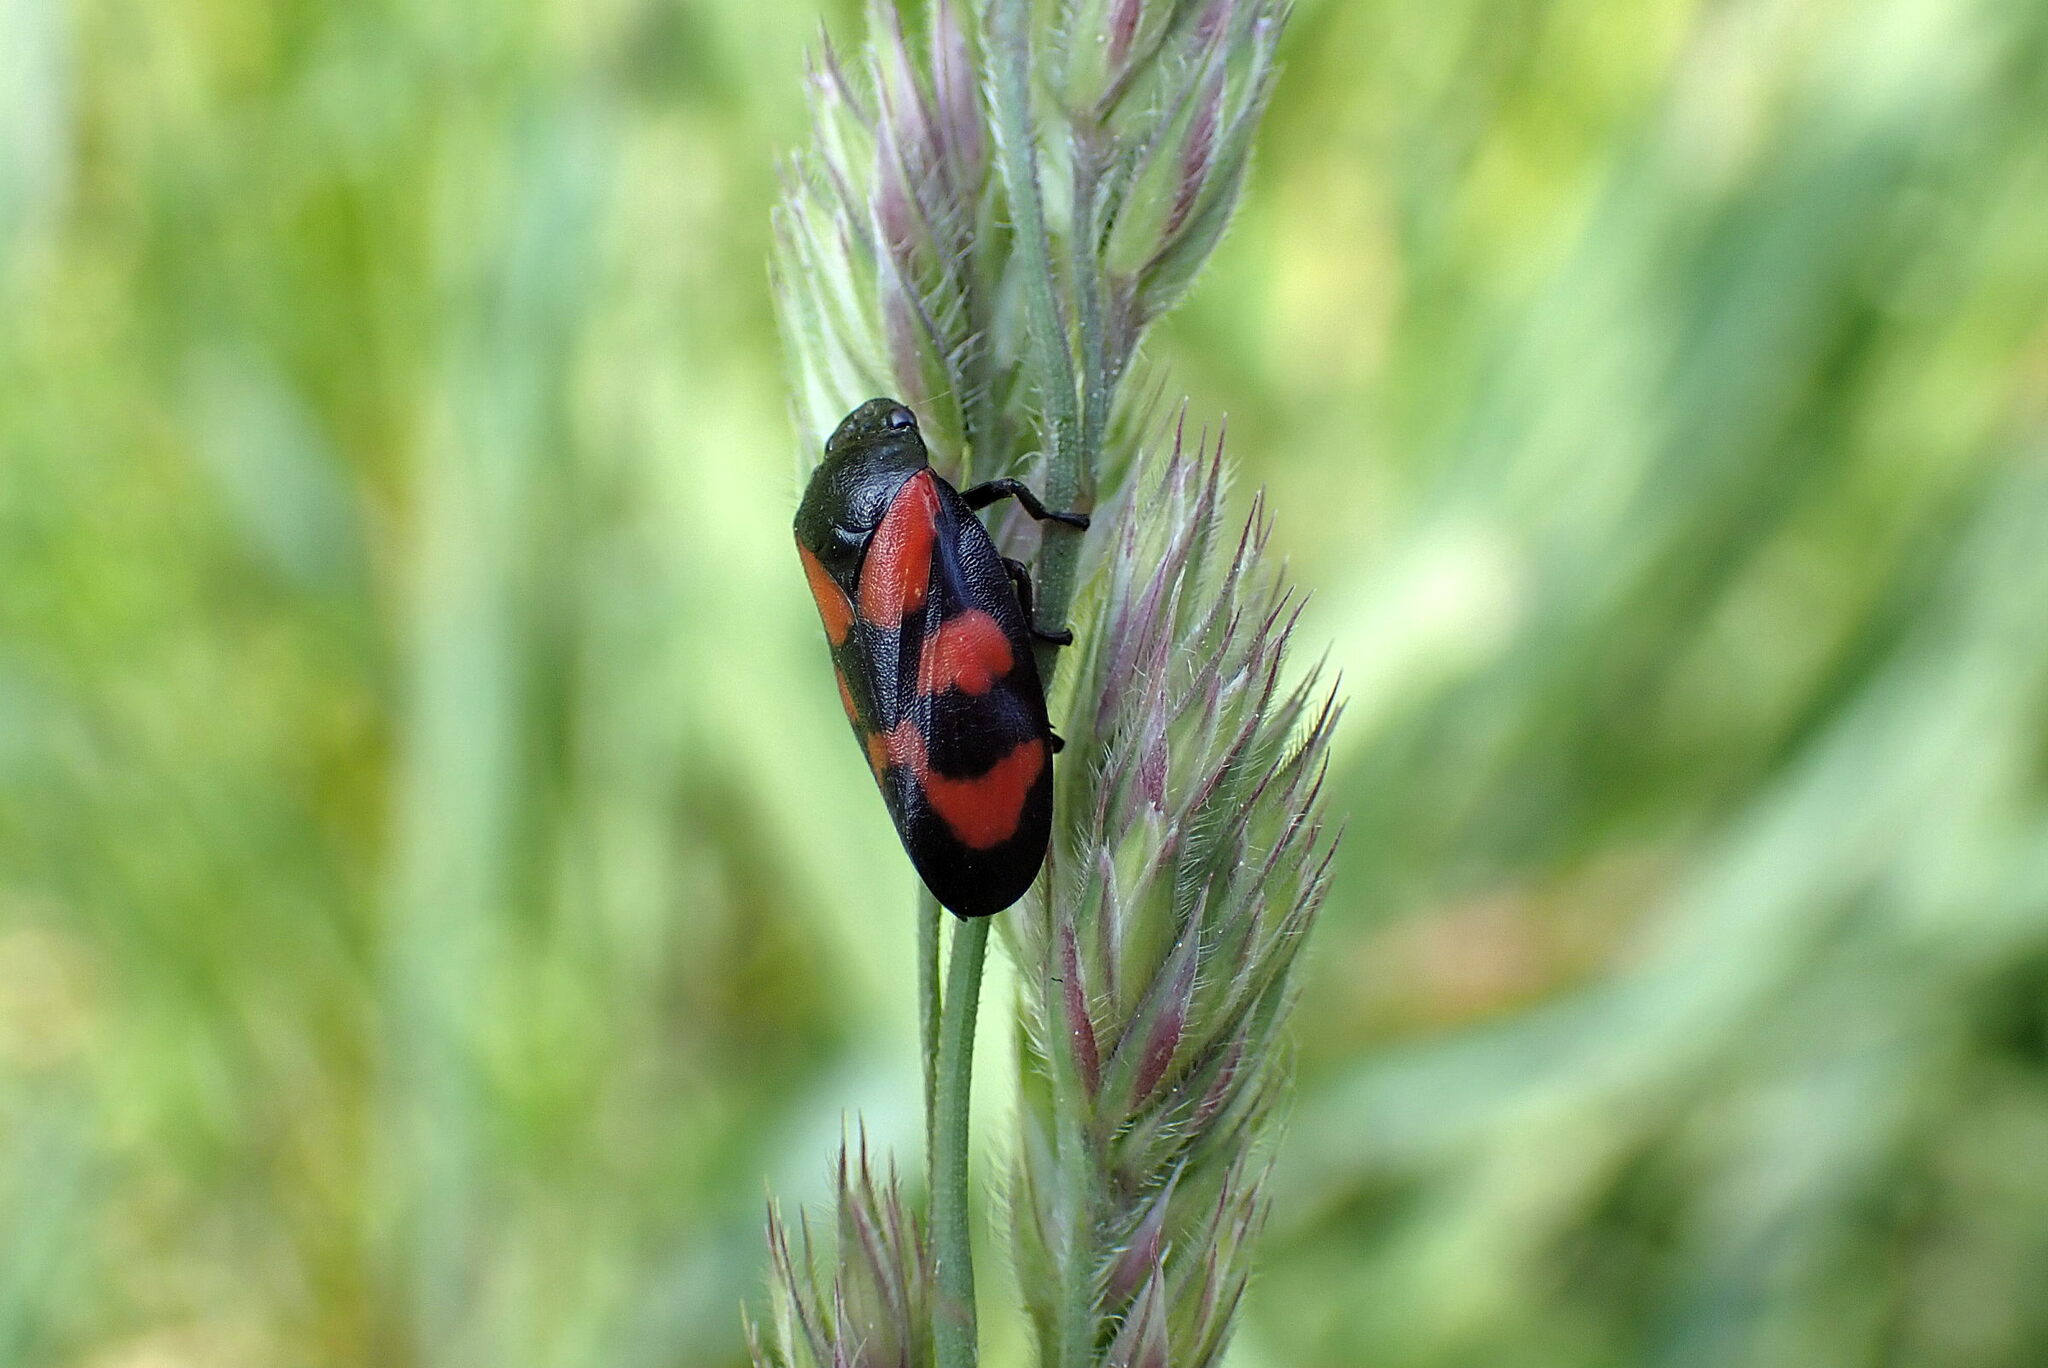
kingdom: Animalia
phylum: Arthropoda
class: Insecta
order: Hemiptera
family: Cercopidae
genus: Cercopis
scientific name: Cercopis vulnerata
